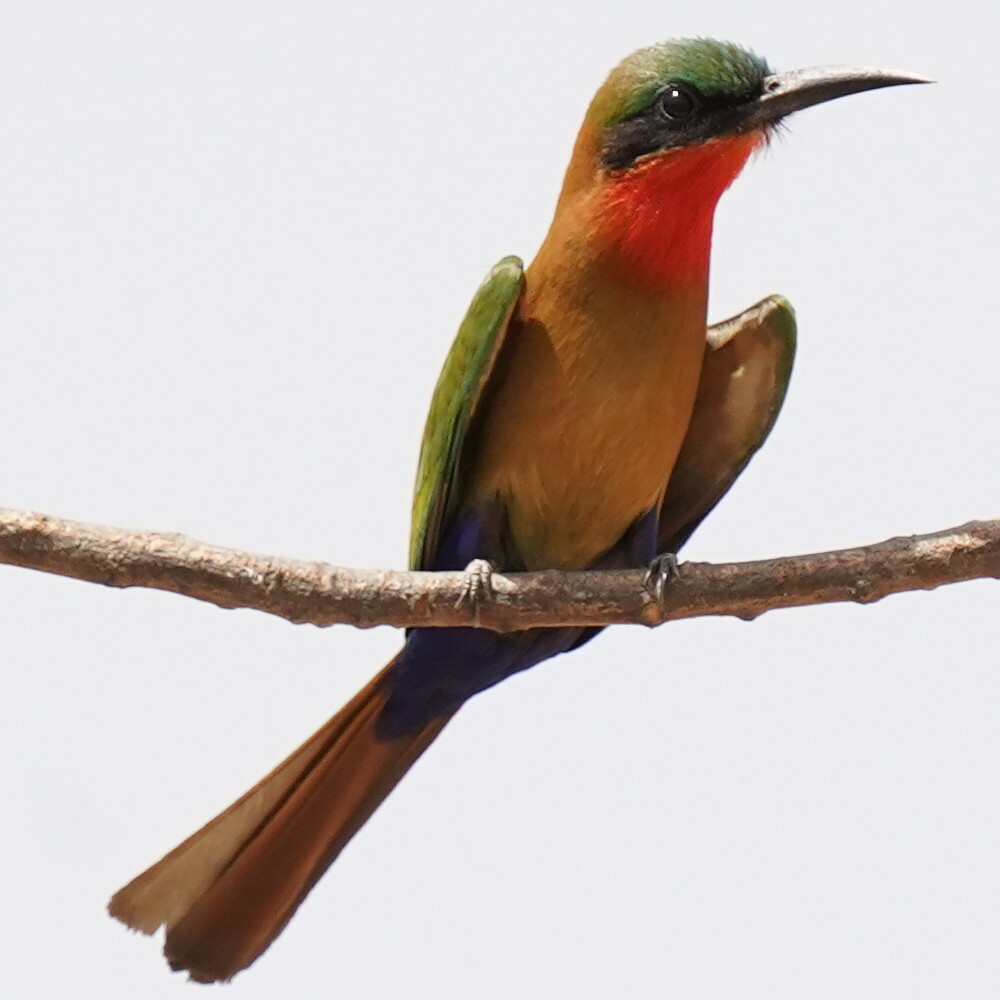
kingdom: Animalia
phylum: Chordata
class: Aves
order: Coraciiformes
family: Meropidae
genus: Merops
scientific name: Merops bulocki
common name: Red-throated bee-eater
